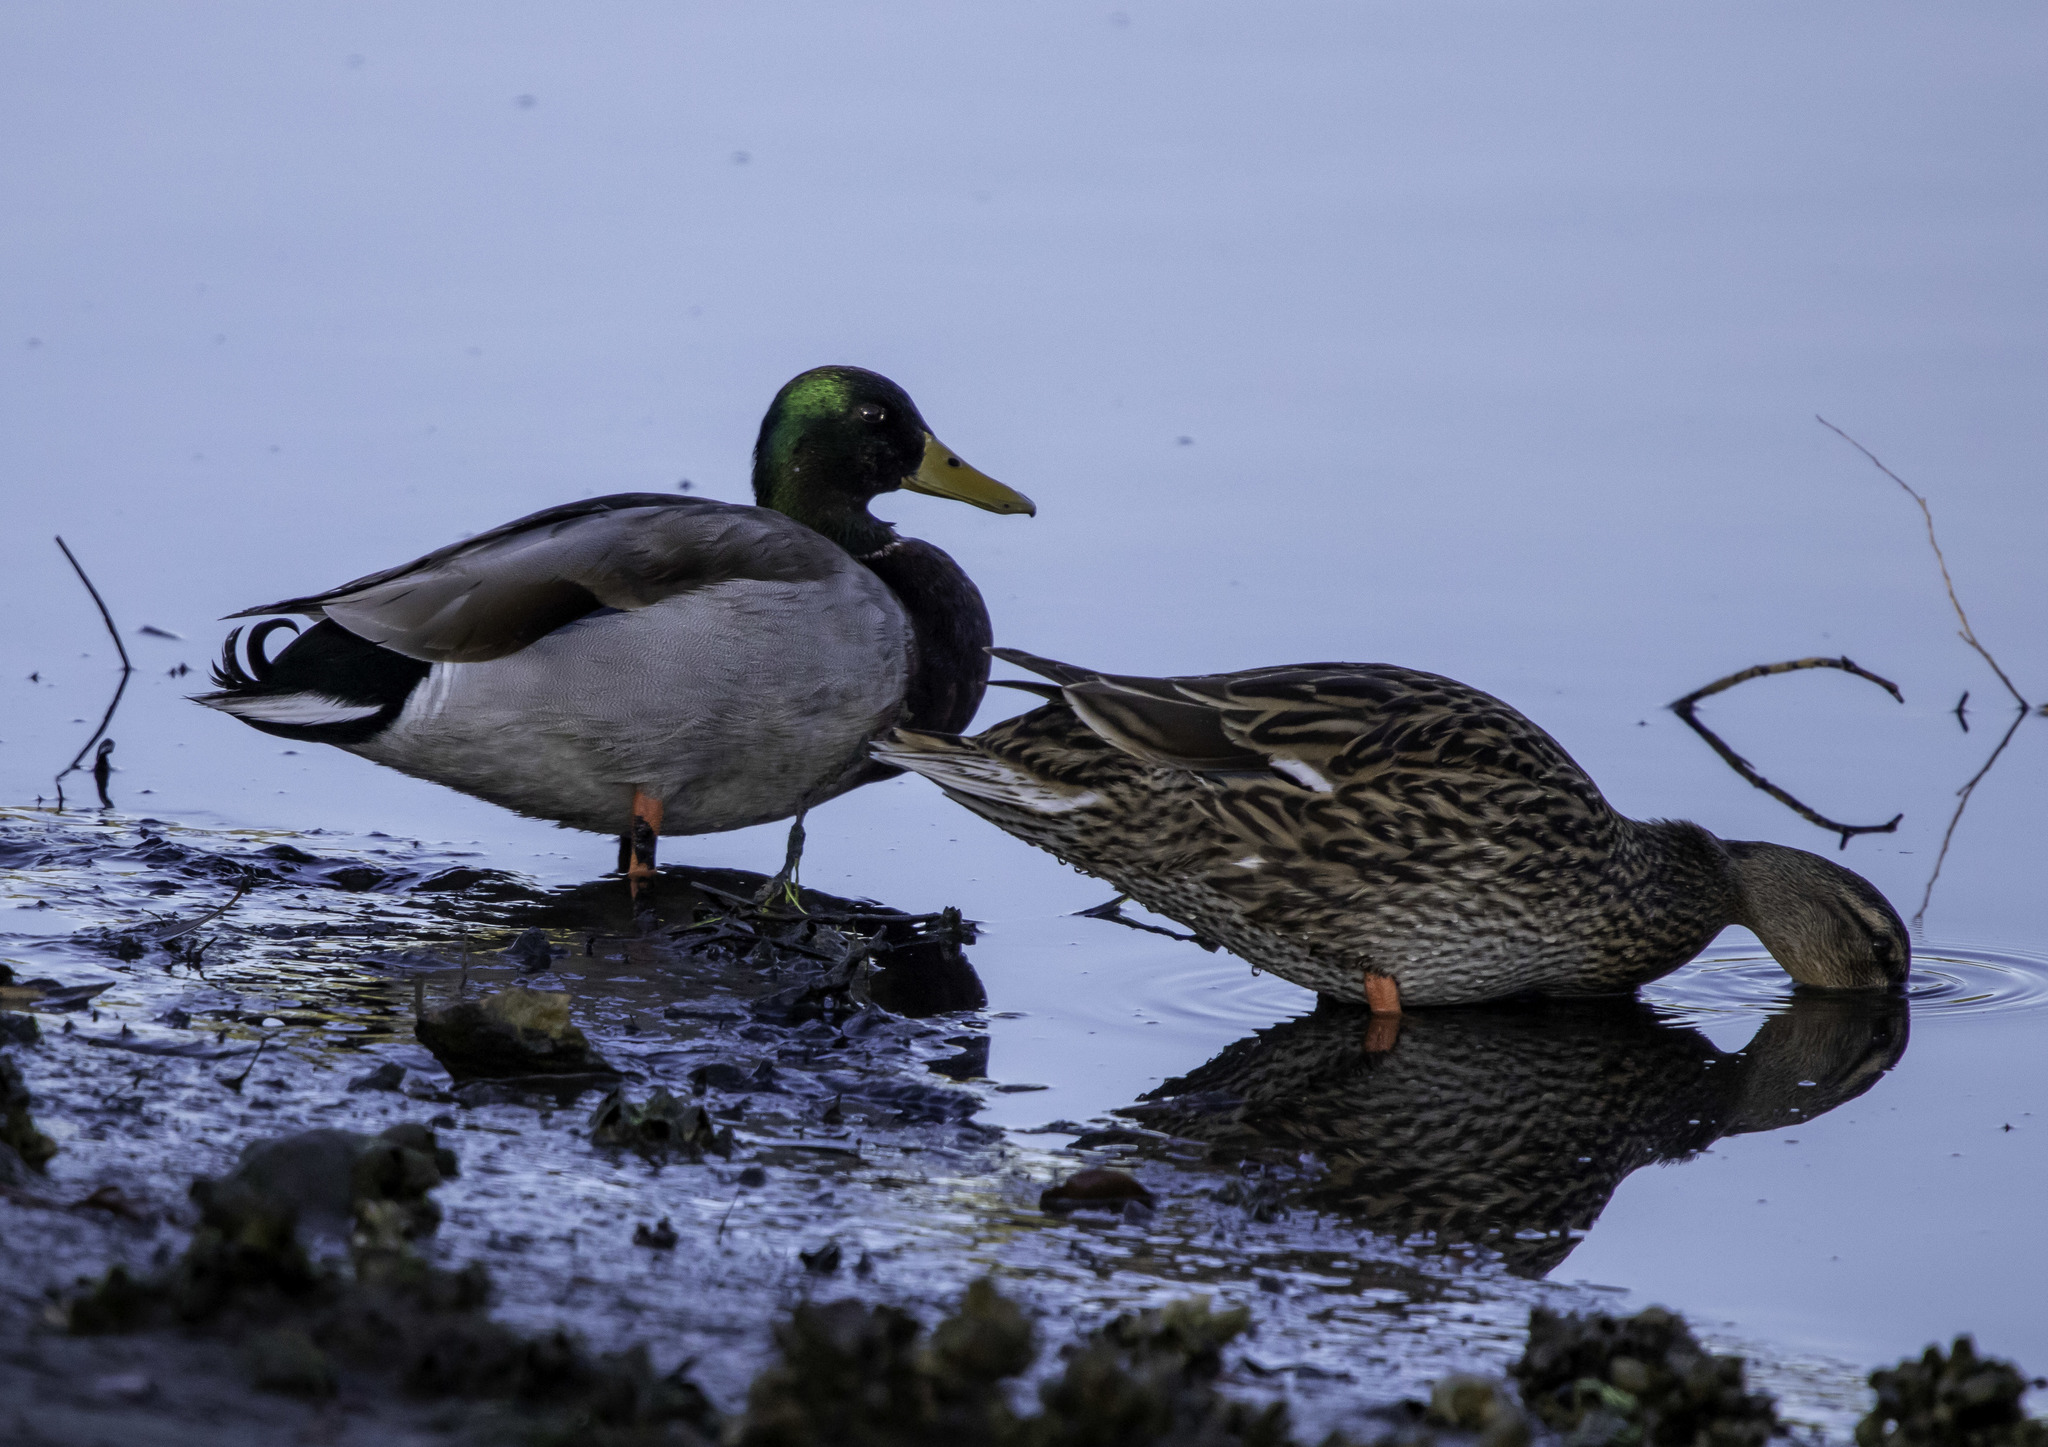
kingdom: Animalia
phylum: Chordata
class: Aves
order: Anseriformes
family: Anatidae
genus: Anas
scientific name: Anas platyrhynchos
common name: Mallard
